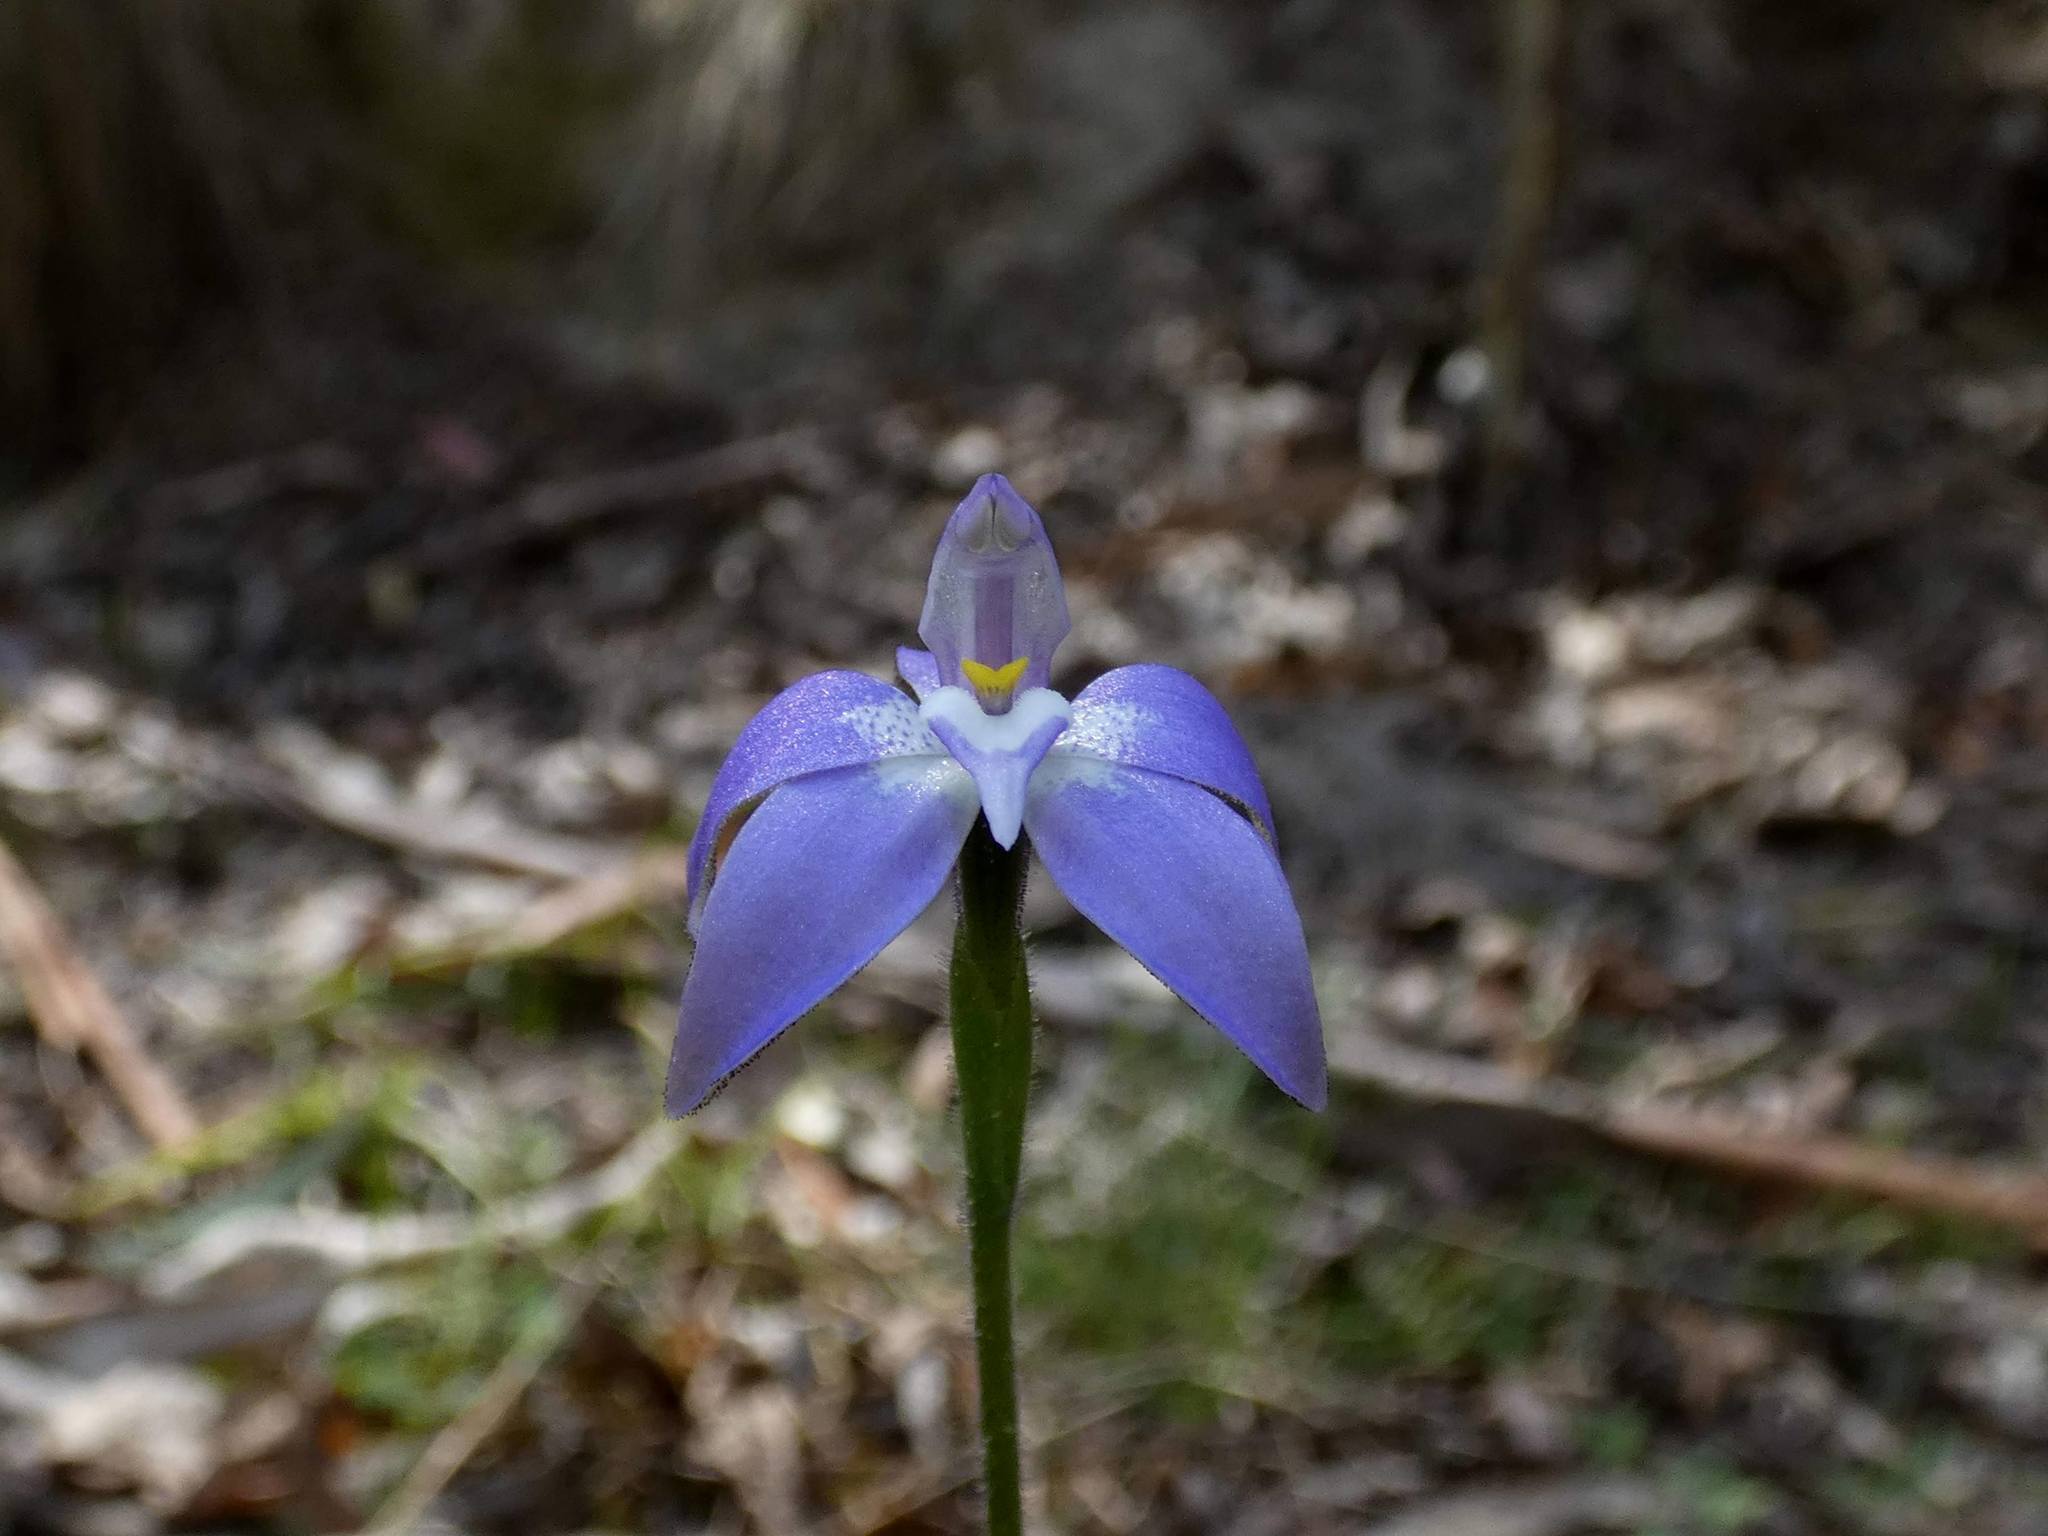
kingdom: Plantae
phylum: Tracheophyta
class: Liliopsida
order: Asparagales
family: Orchidaceae
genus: Caladenia
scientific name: Caladenia major
